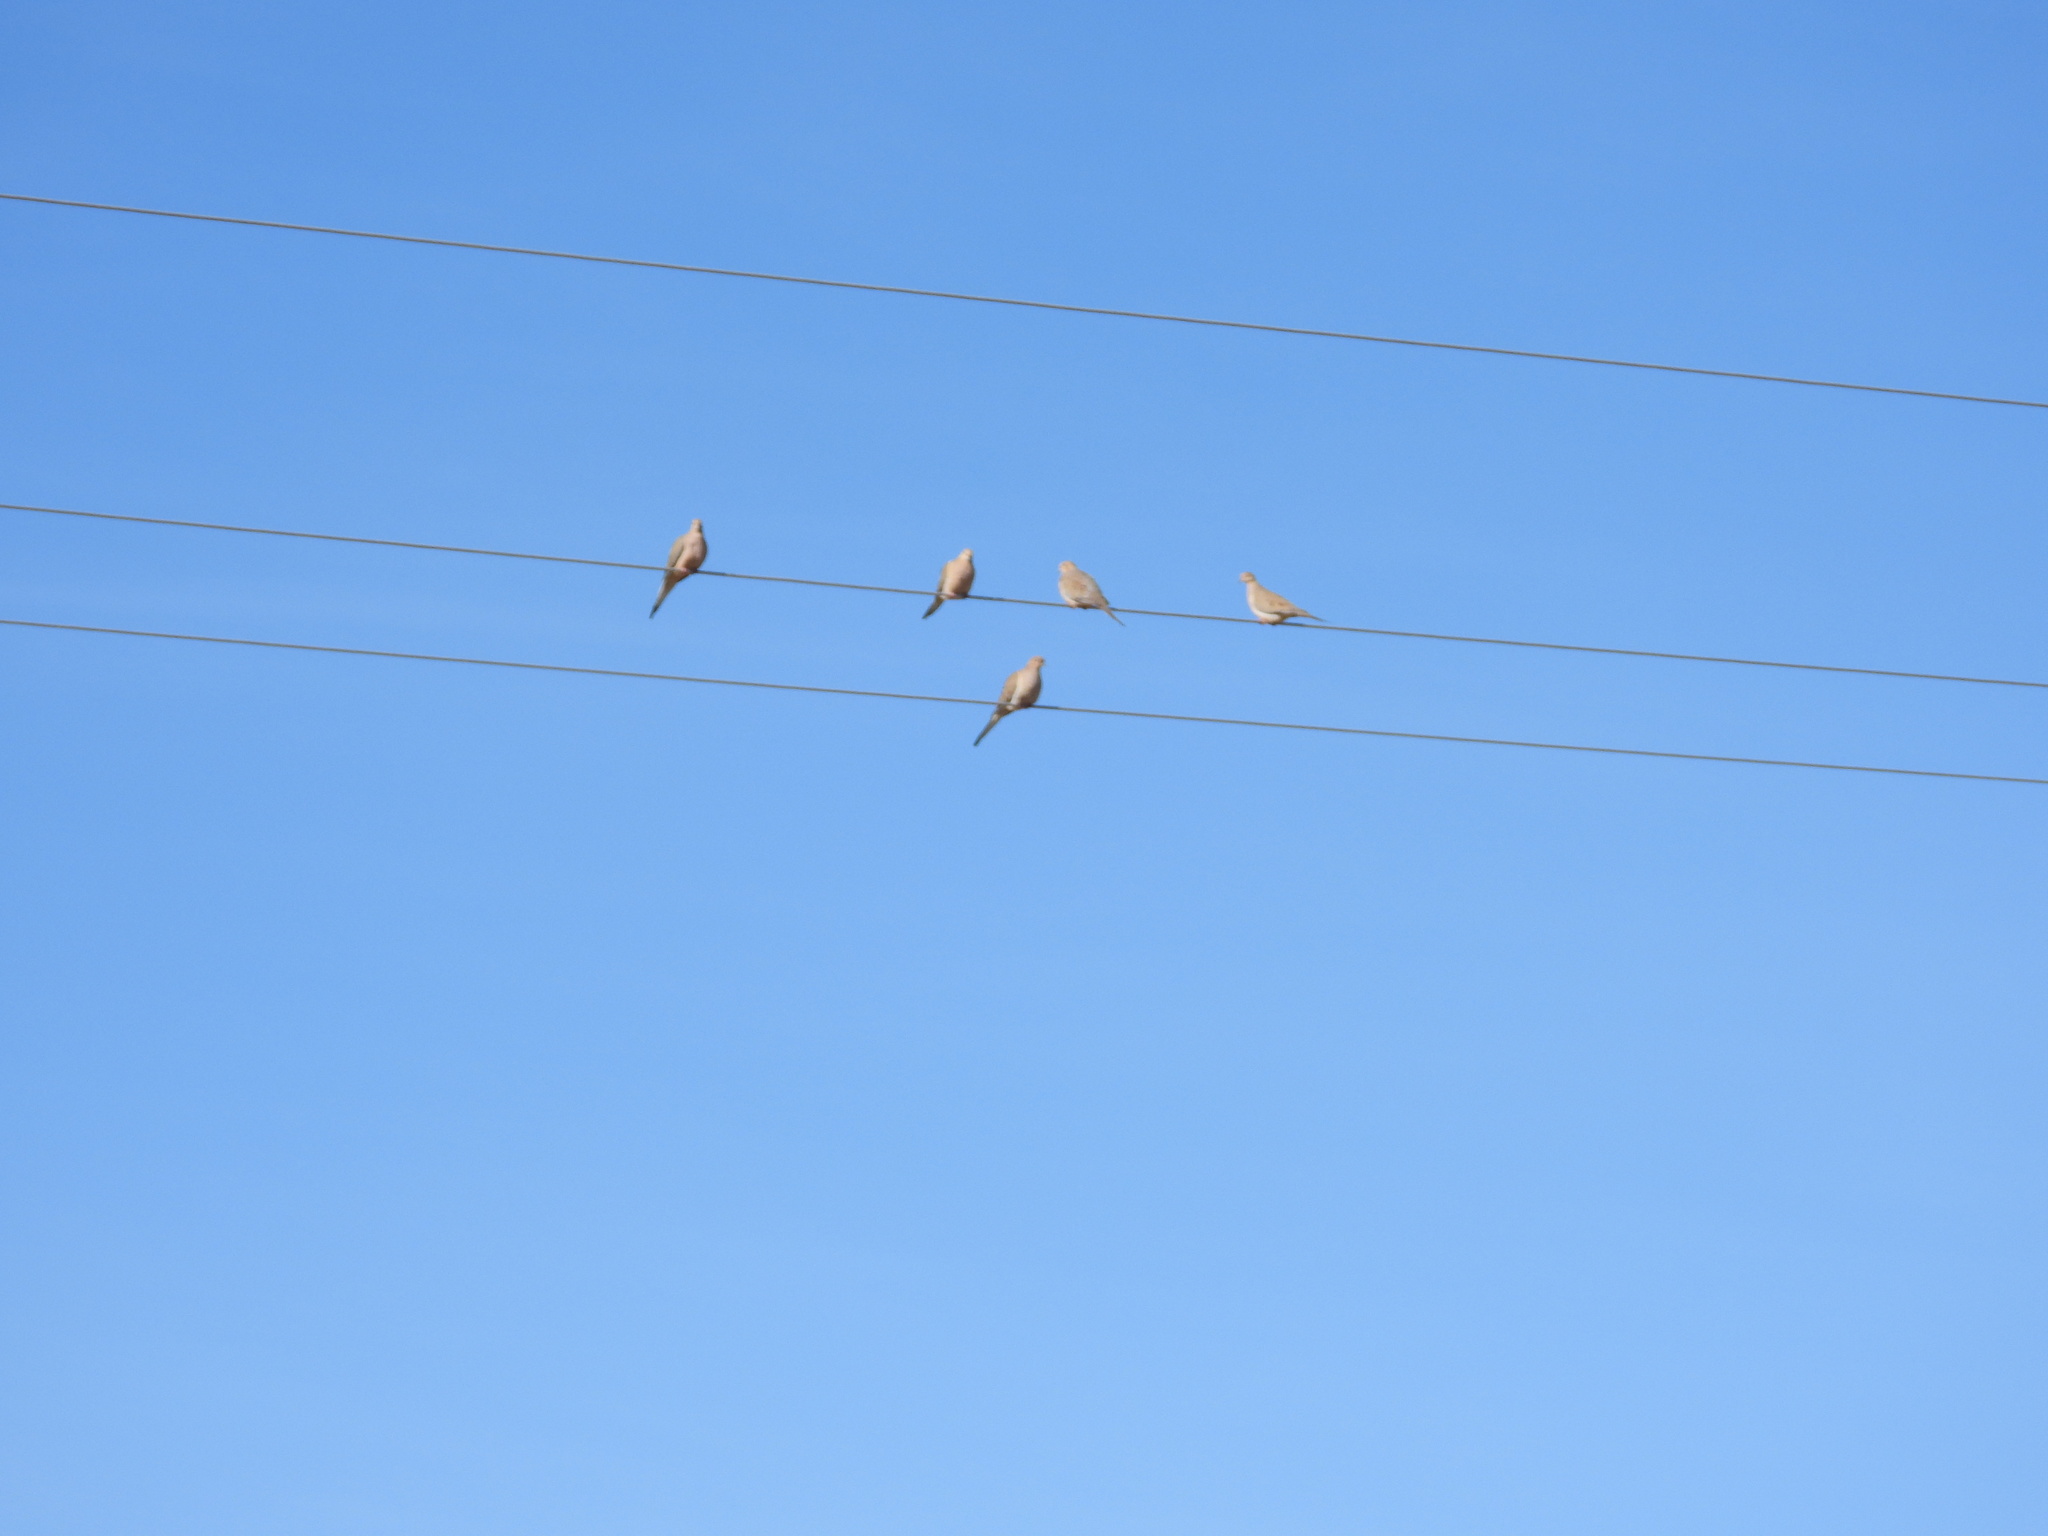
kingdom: Animalia
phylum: Chordata
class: Aves
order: Columbiformes
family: Columbidae
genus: Zenaida
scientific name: Zenaida macroura
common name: Mourning dove
